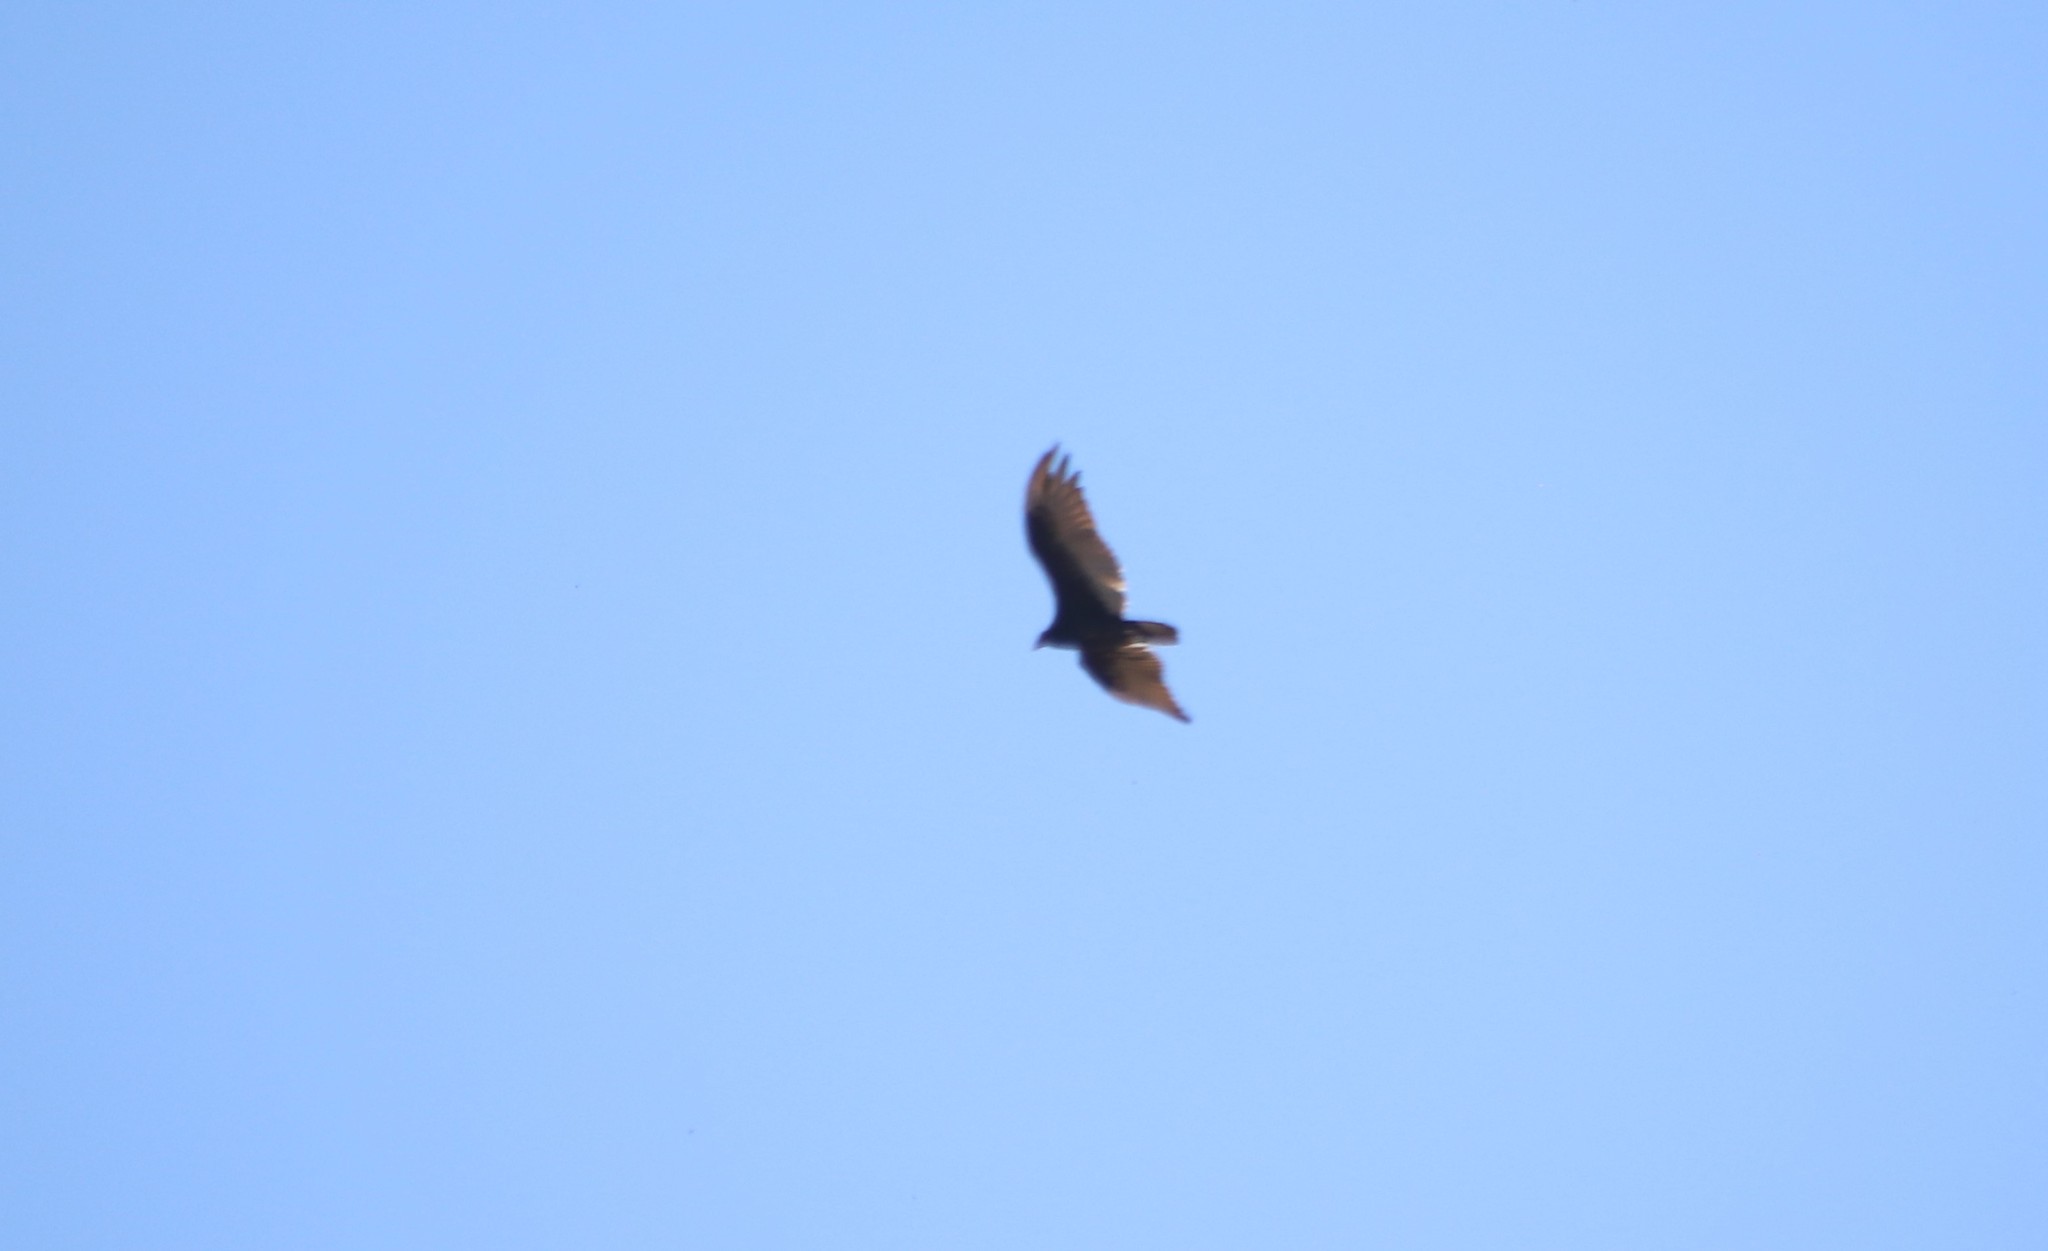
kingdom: Animalia
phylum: Chordata
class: Aves
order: Accipitriformes
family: Cathartidae
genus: Cathartes
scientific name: Cathartes aura
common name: Turkey vulture
